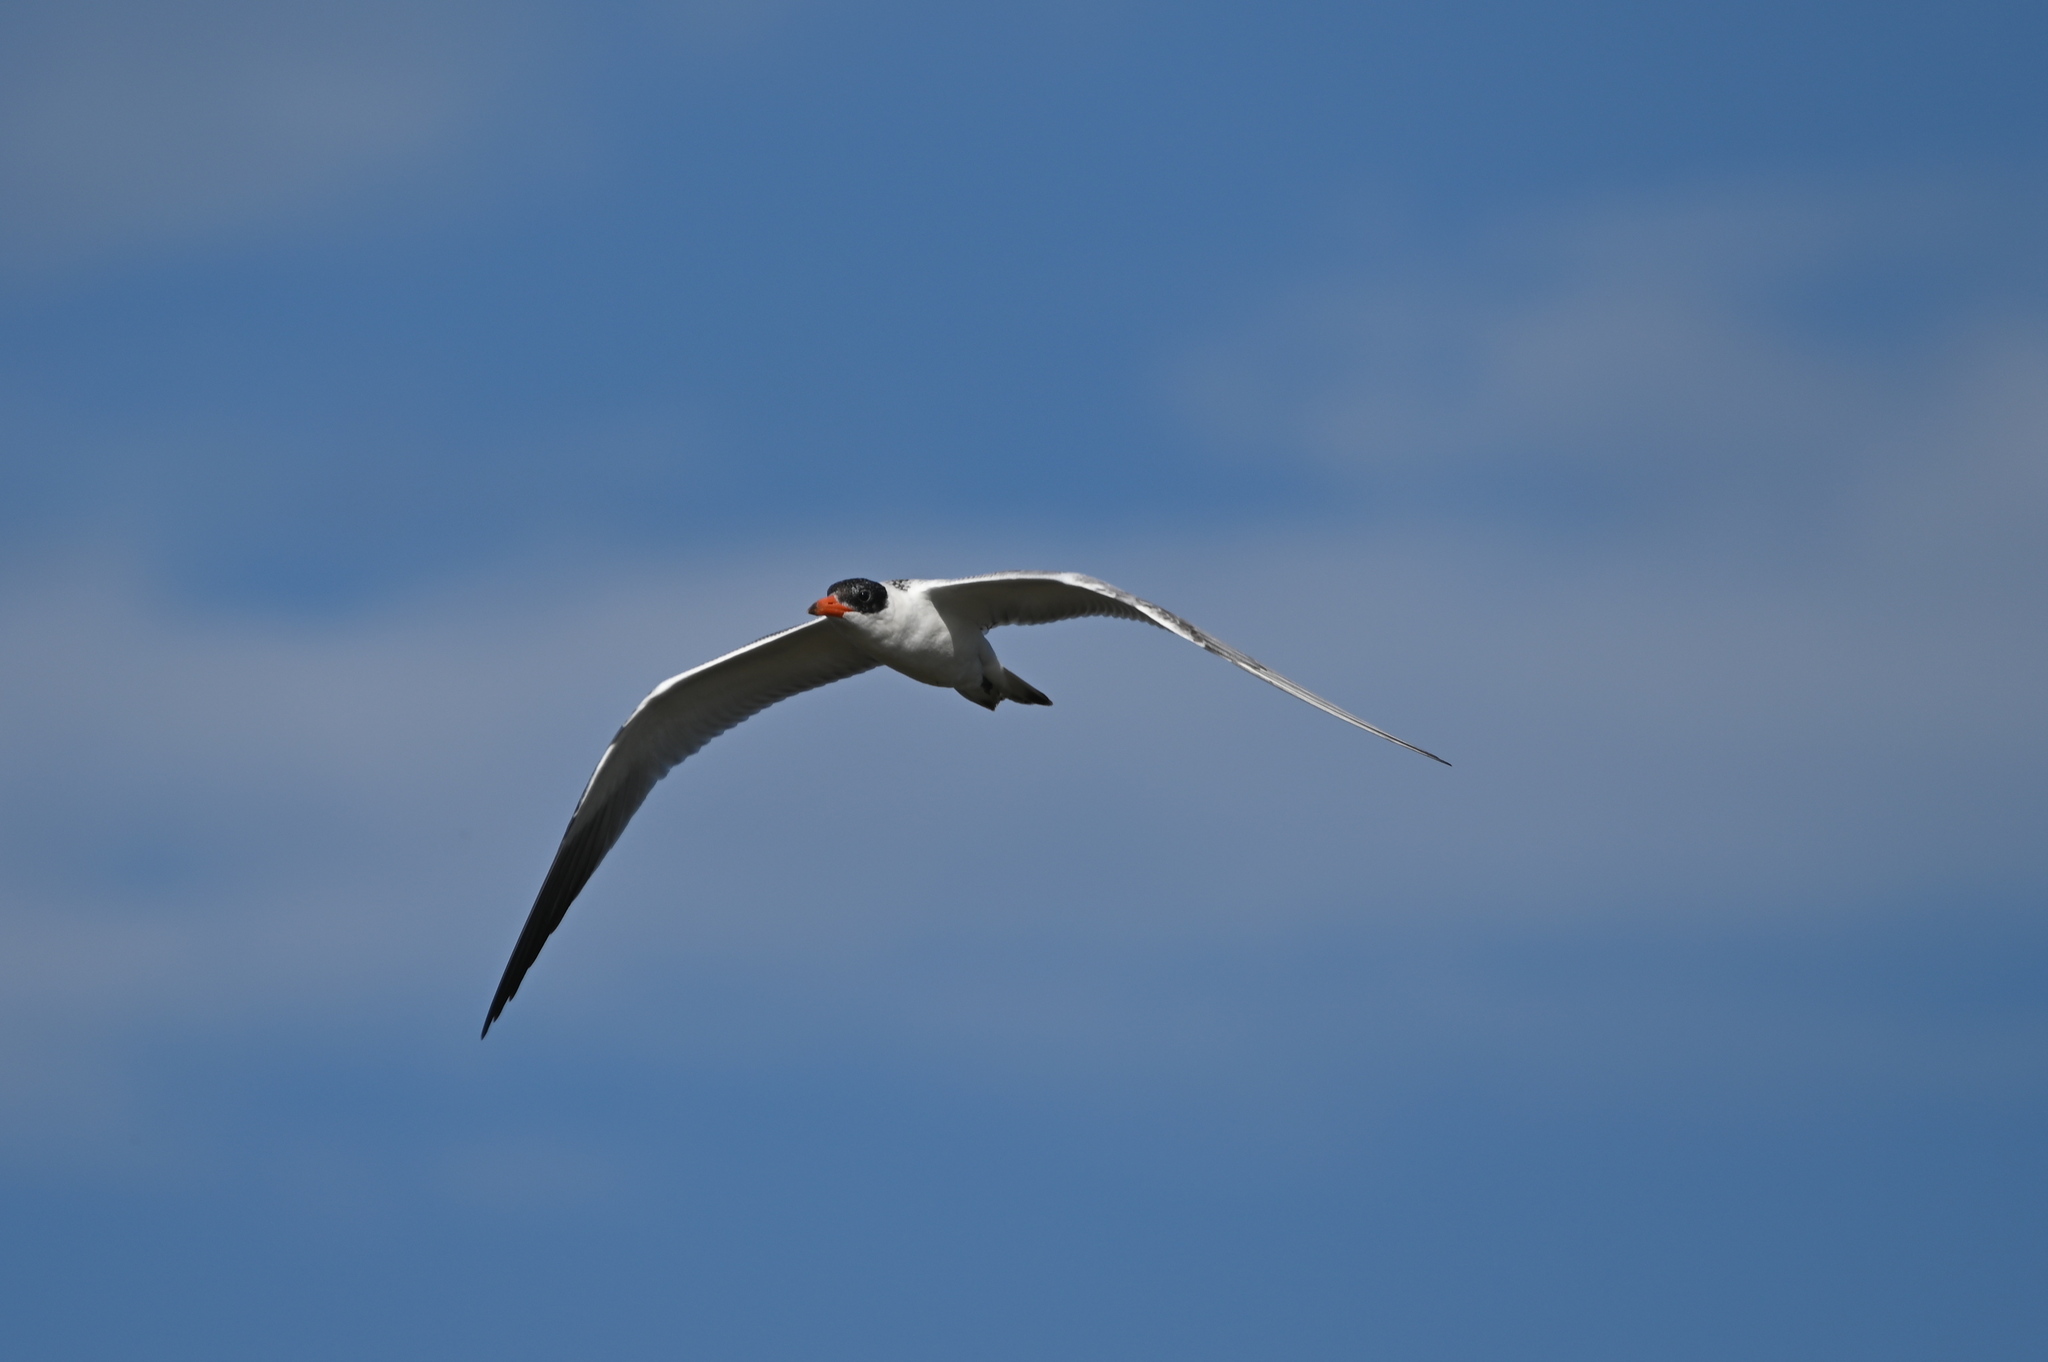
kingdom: Animalia
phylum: Chordata
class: Aves
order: Charadriiformes
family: Laridae
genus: Hydroprogne
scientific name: Hydroprogne caspia
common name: Caspian tern
